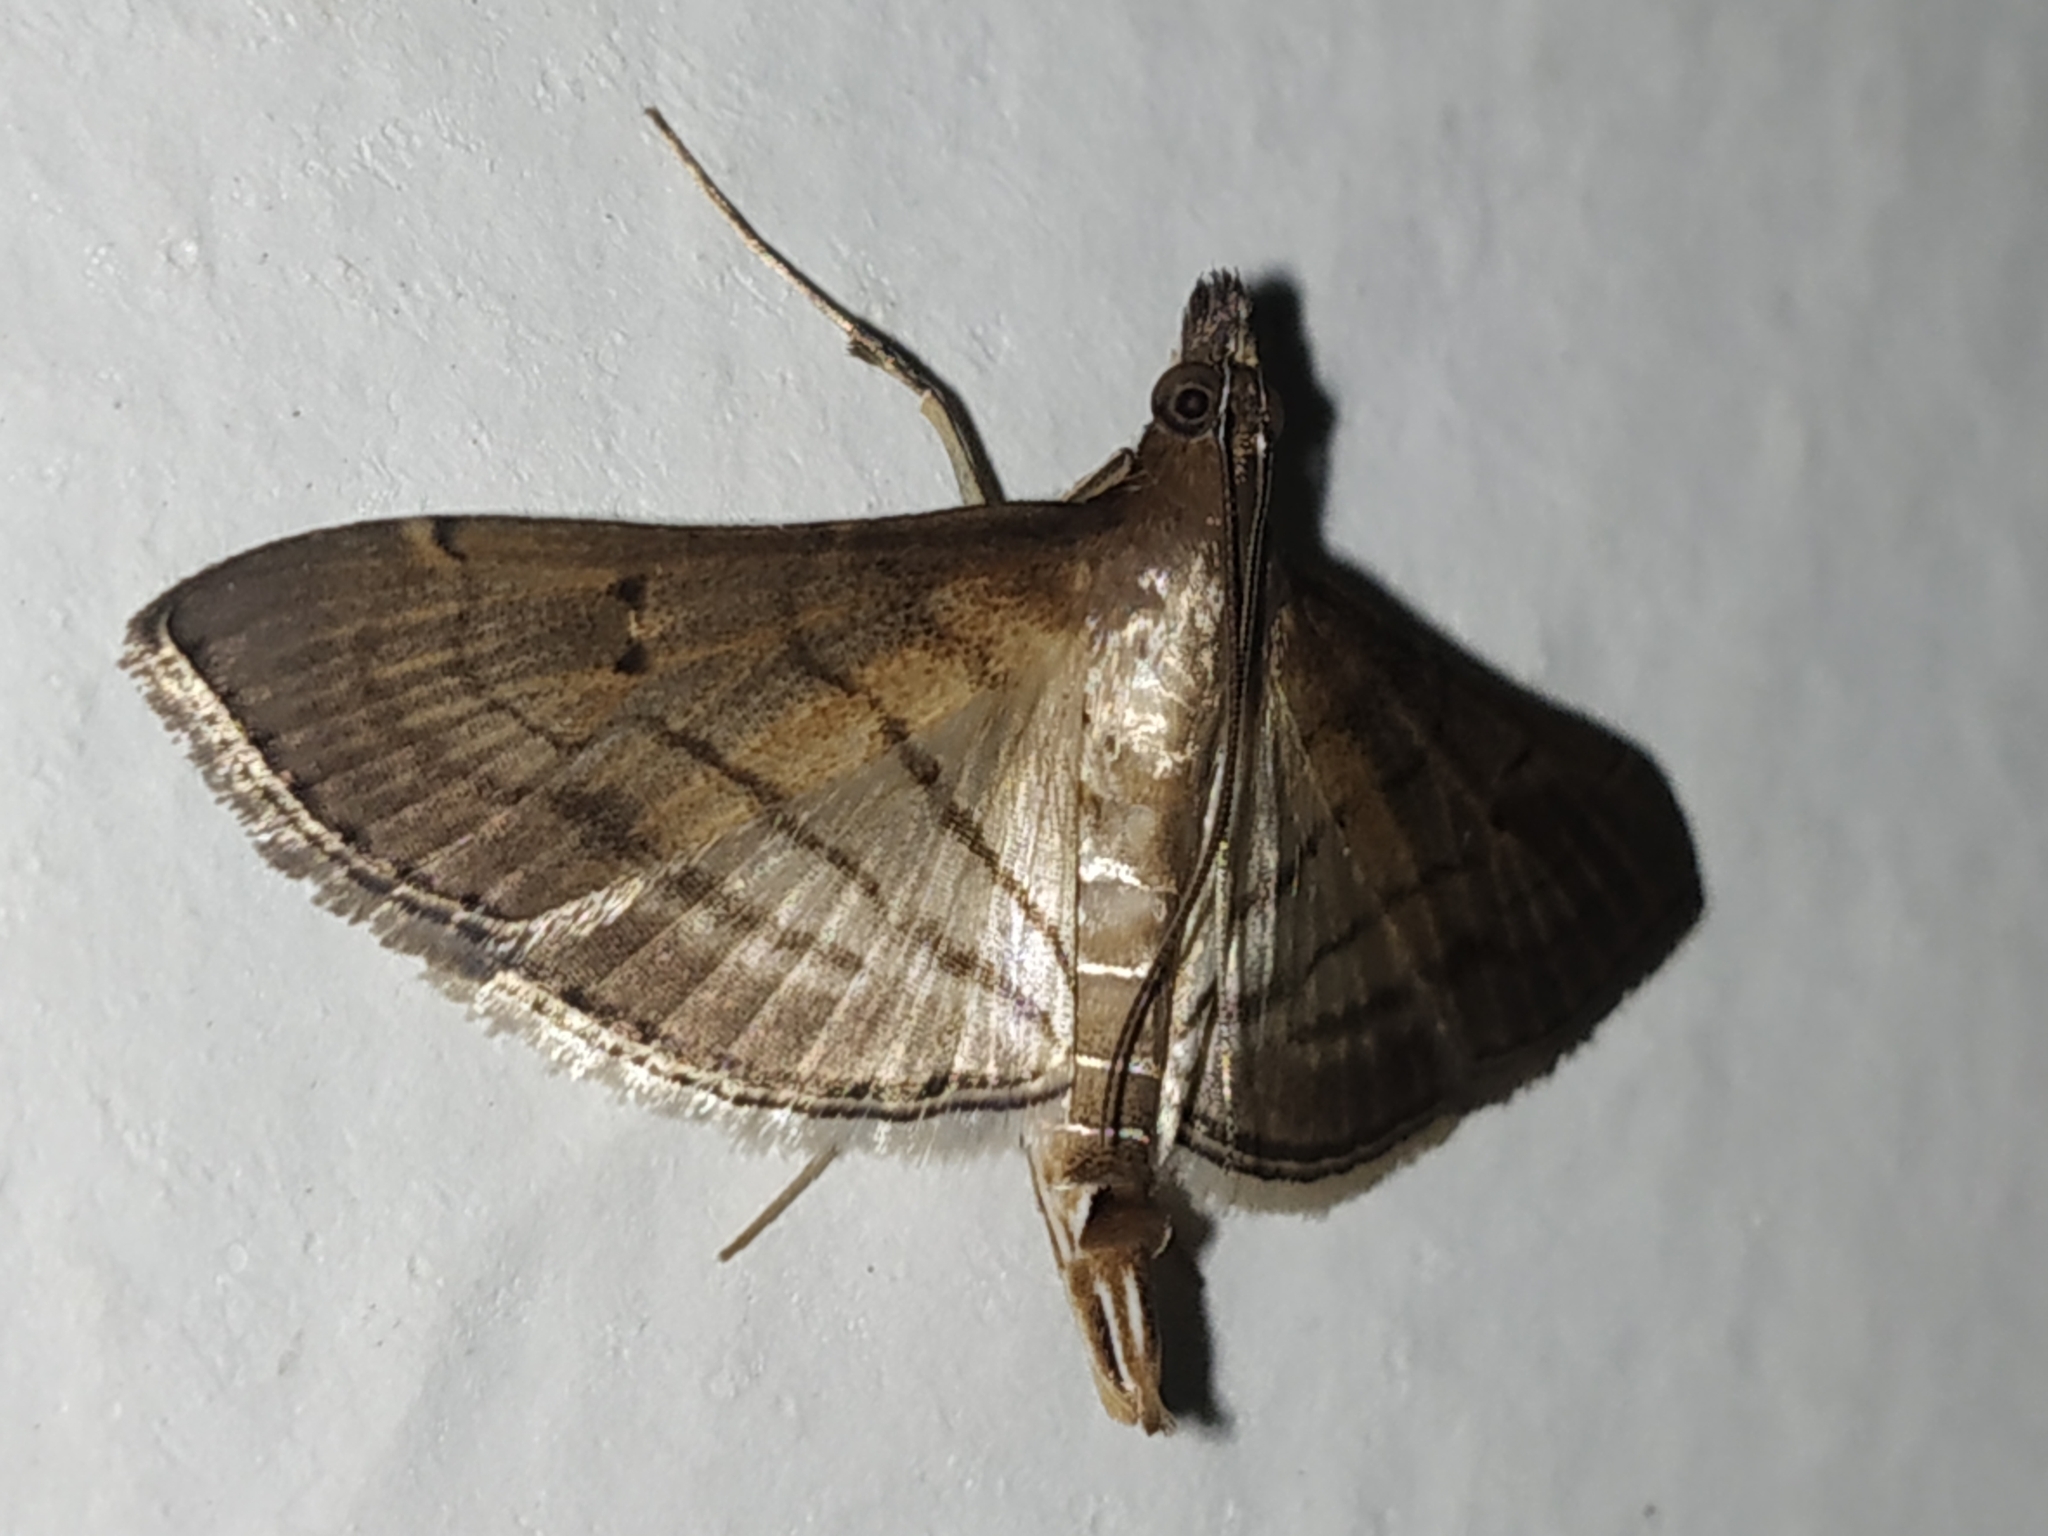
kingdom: Animalia
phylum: Arthropoda
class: Insecta
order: Lepidoptera
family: Crambidae
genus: Cnaphalocrocis
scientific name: Cnaphalocrocis Marasmia trapezalis
